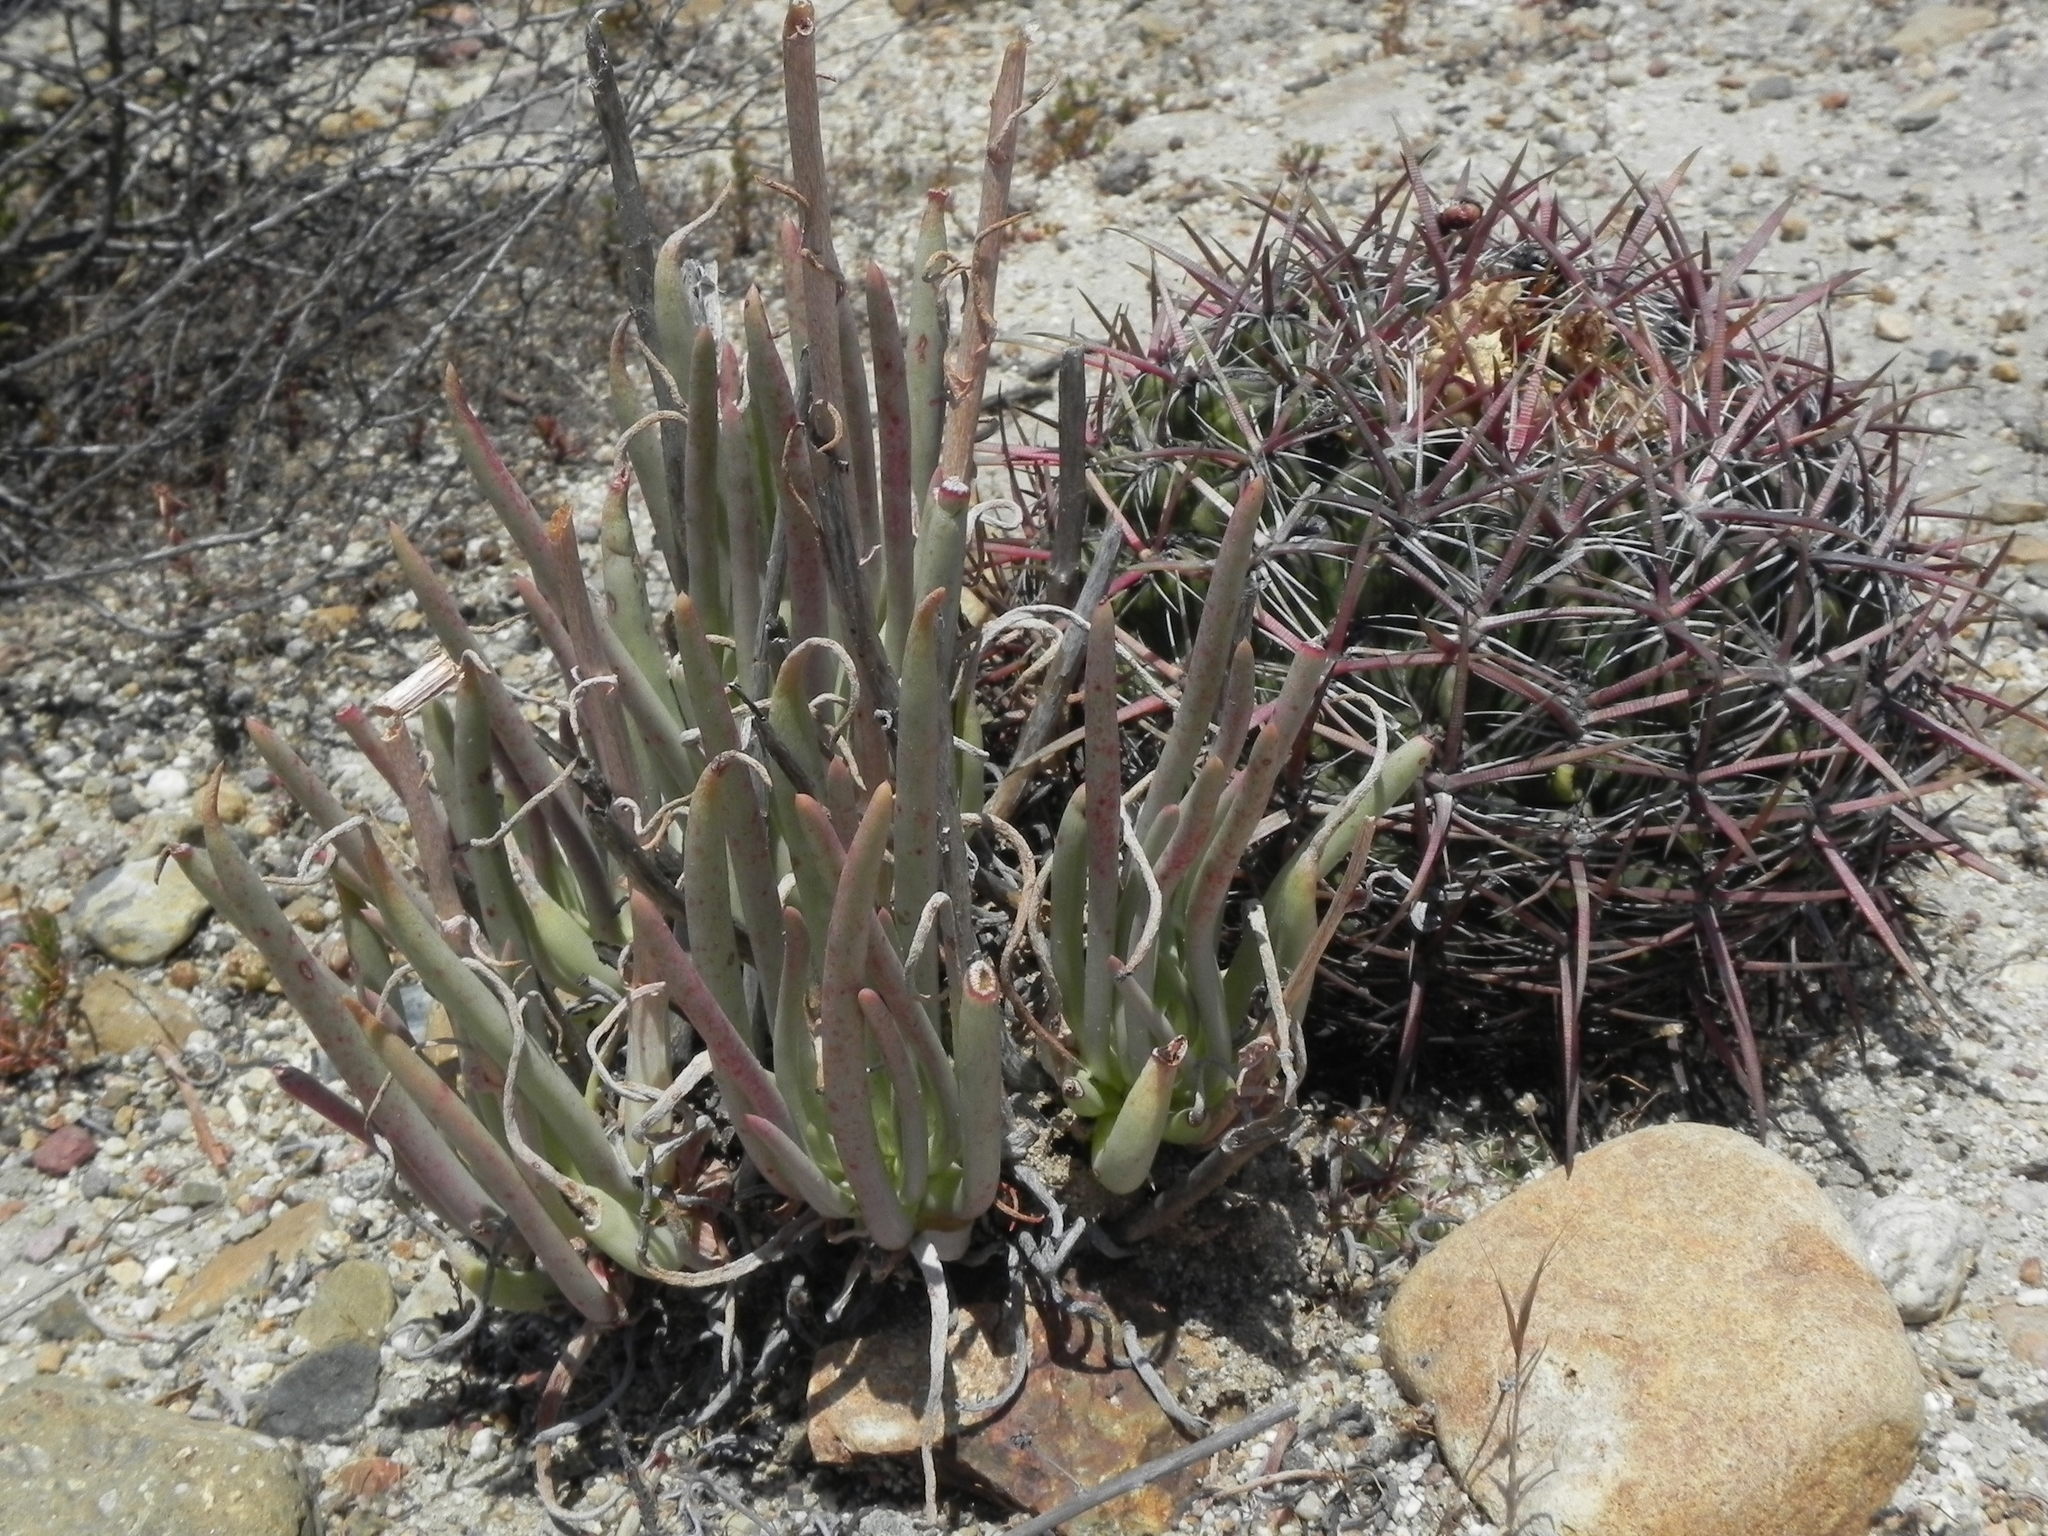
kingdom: Plantae
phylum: Tracheophyta
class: Magnoliopsida
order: Caryophyllales
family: Cactaceae
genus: Ferocactus
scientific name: Ferocactus viridescens
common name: San diego barrel cactus
